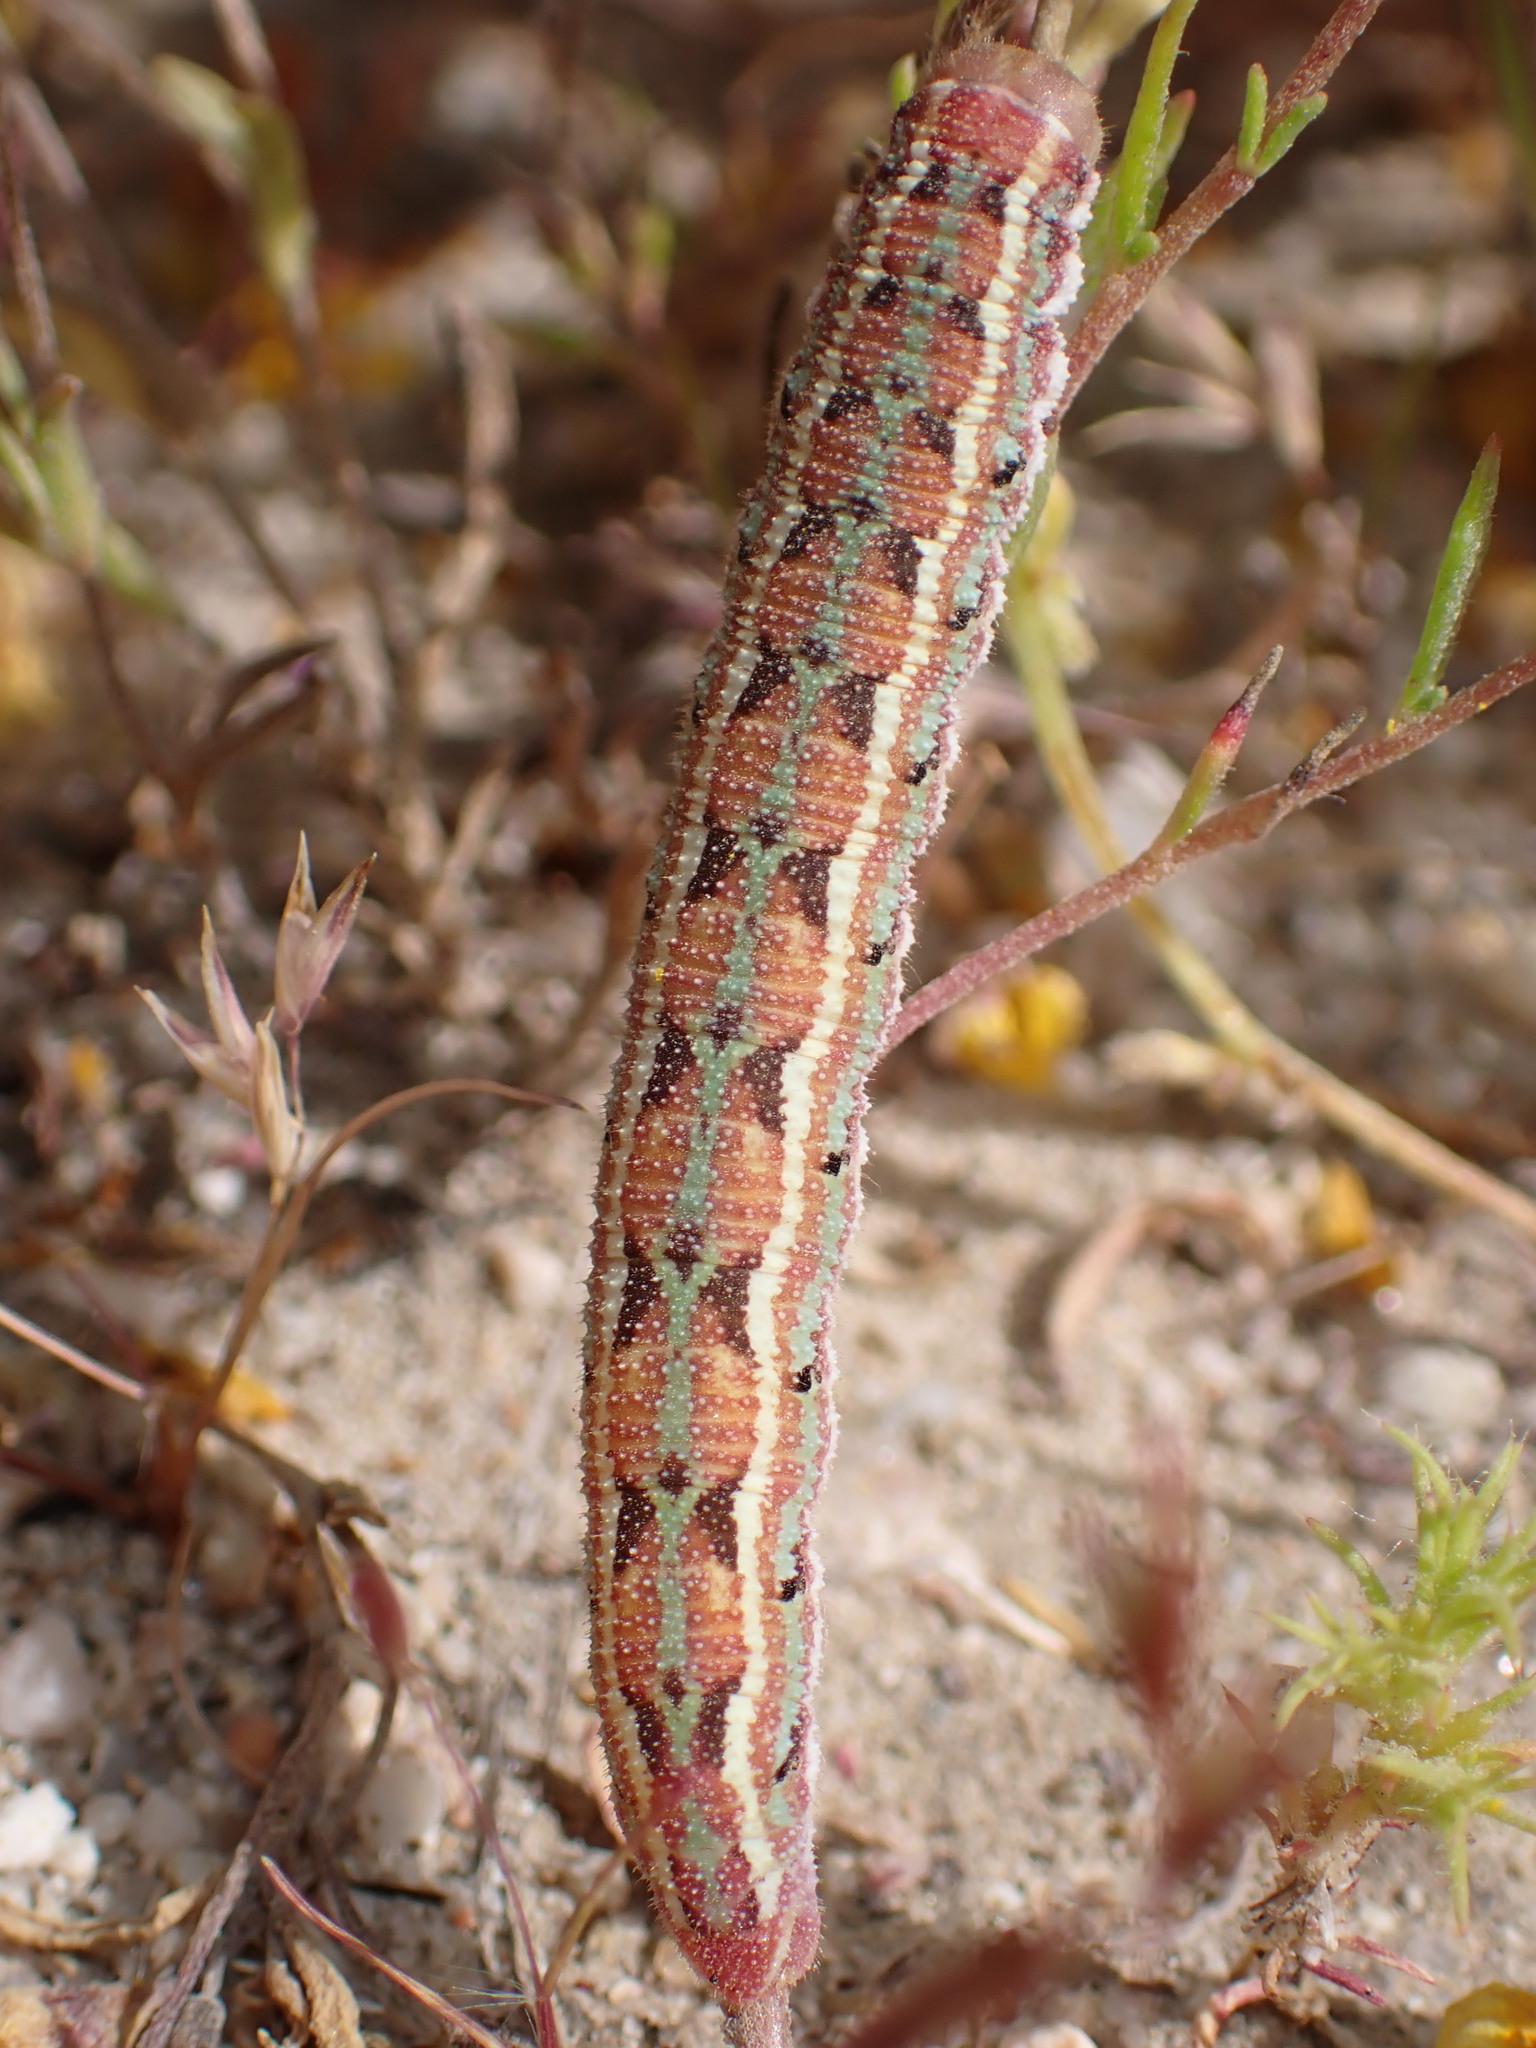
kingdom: Animalia
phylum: Arthropoda
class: Insecta
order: Lepidoptera
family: Sphingidae
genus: Euproserpinus
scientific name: Euproserpinus euterpe
